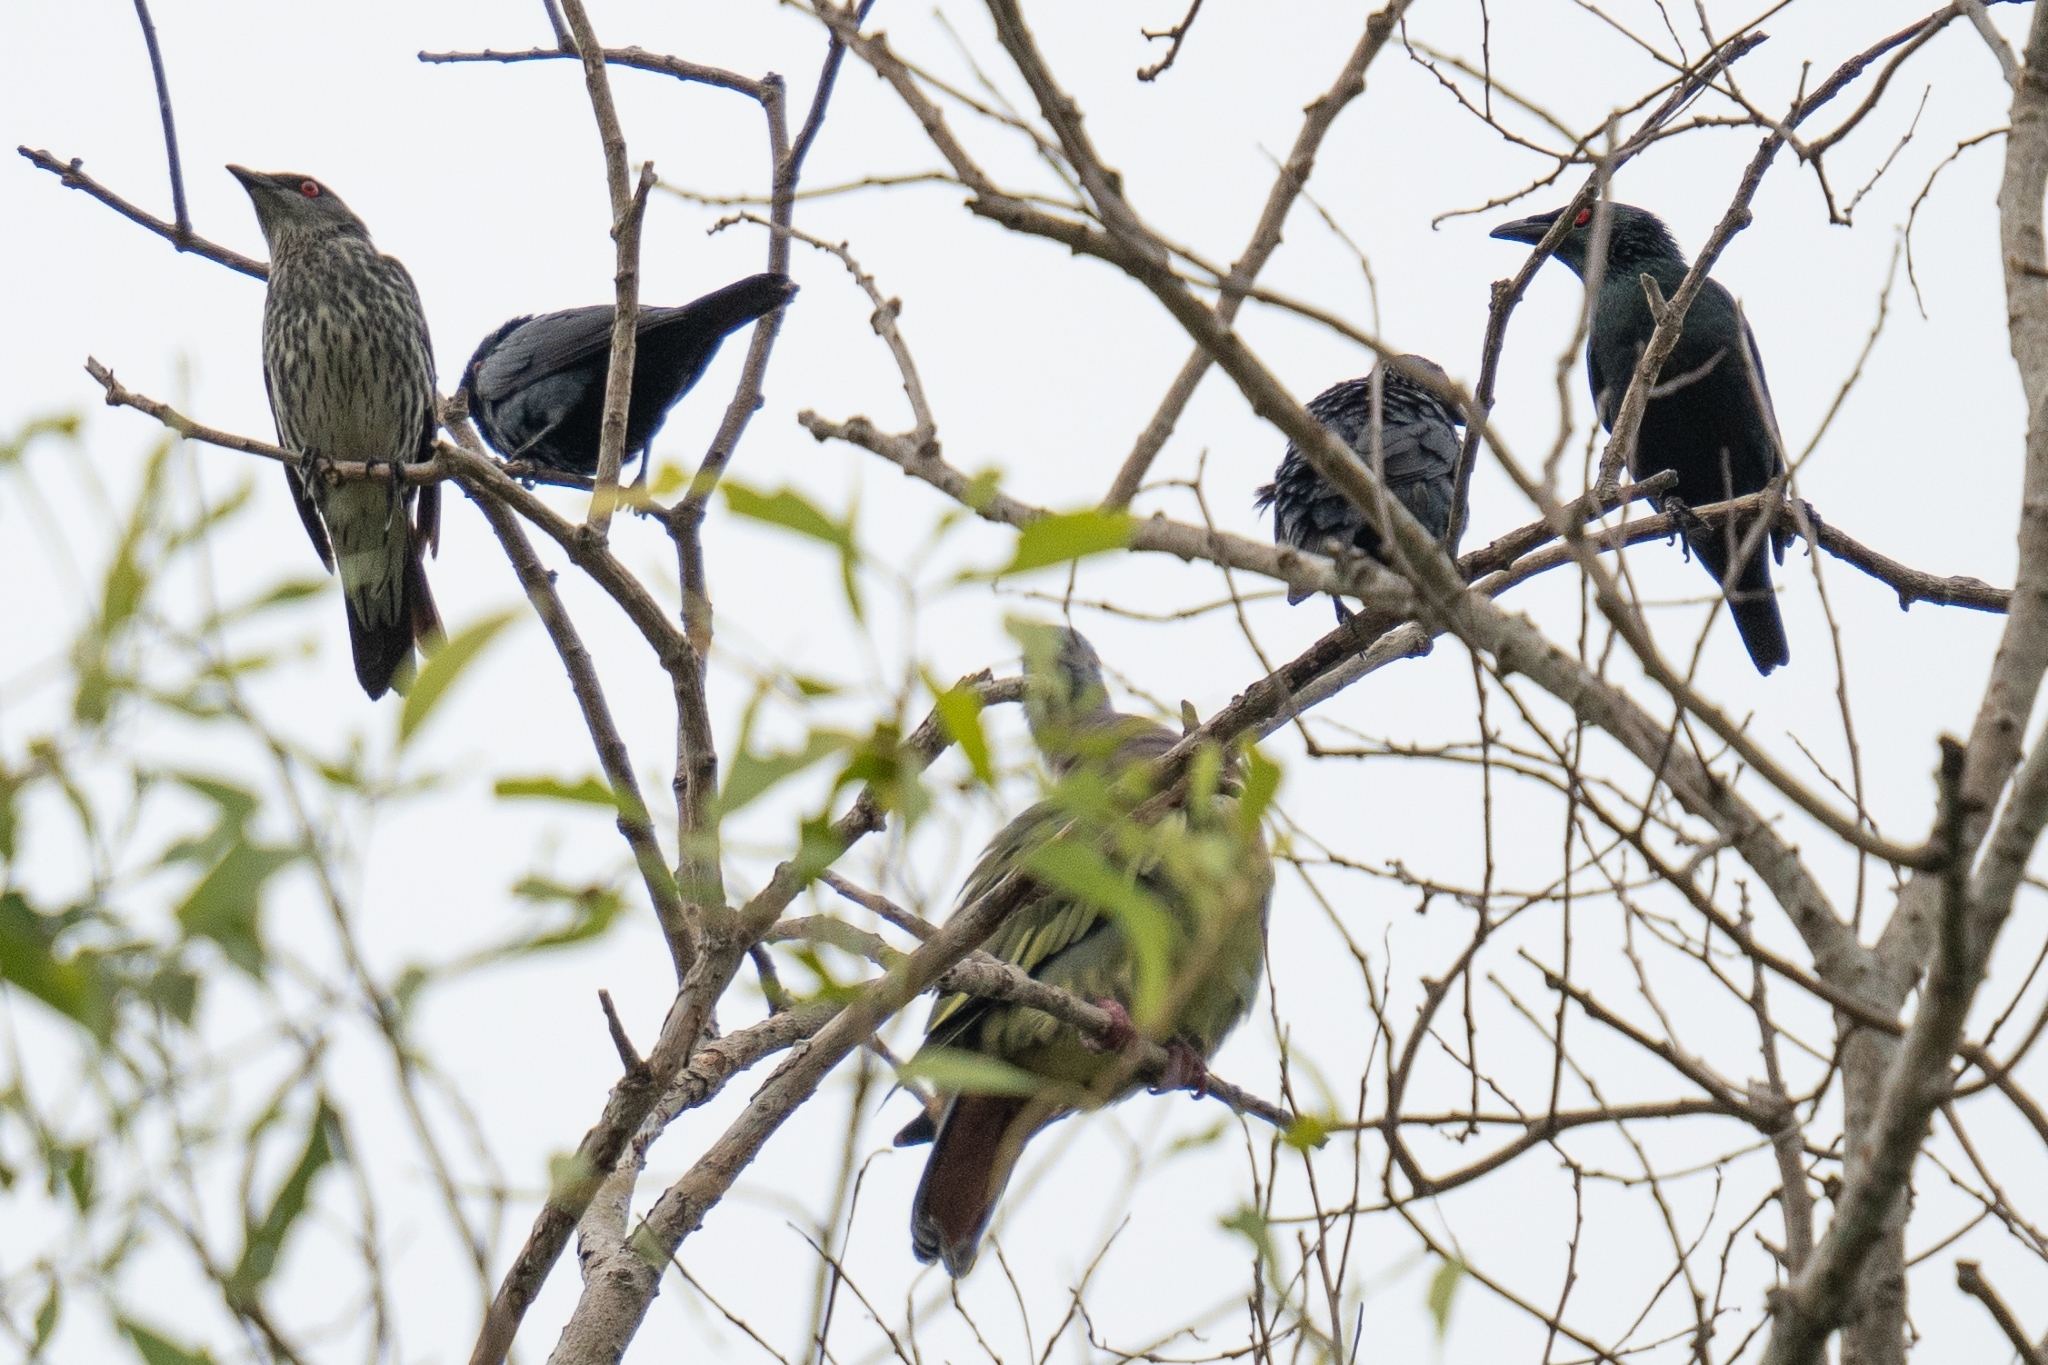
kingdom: Animalia
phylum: Chordata
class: Aves
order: Passeriformes
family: Sturnidae
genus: Aplonis
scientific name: Aplonis panayensis
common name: Asian glossy starling
